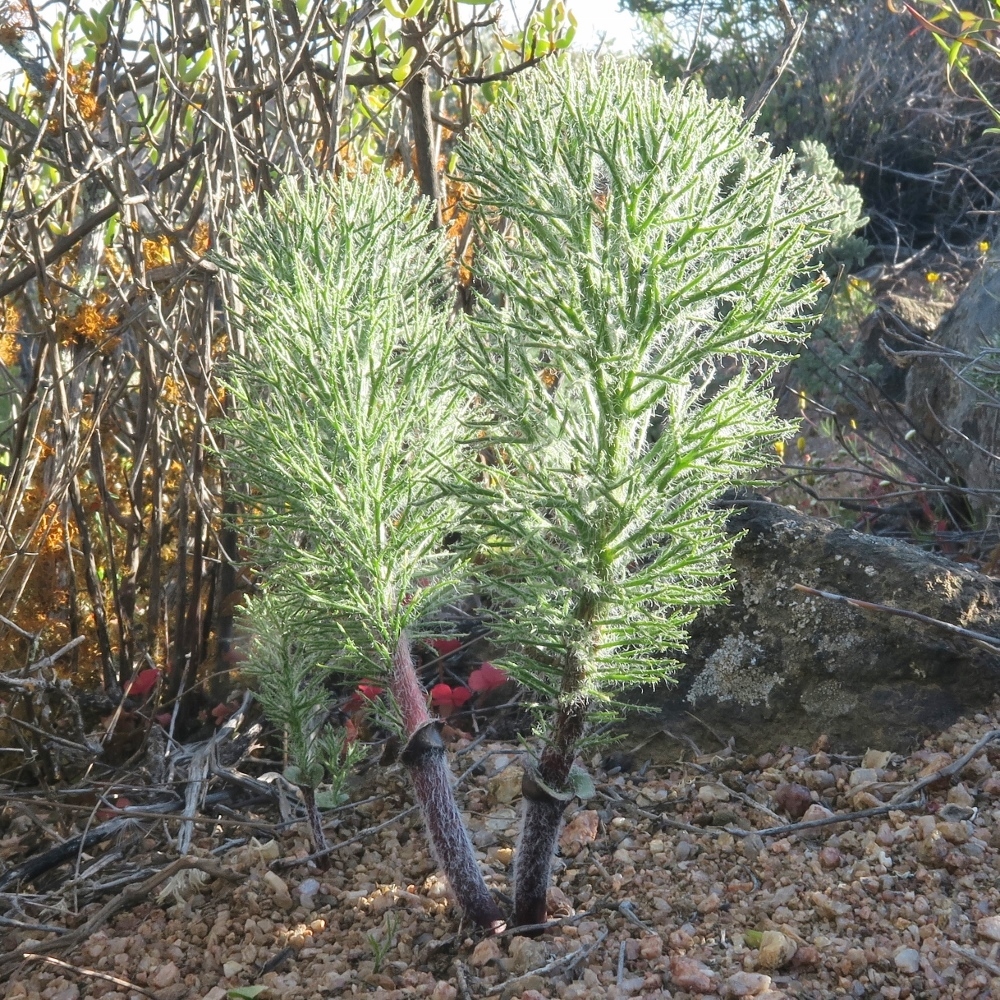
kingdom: Plantae
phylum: Tracheophyta
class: Liliopsida
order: Asparagales
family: Asparagaceae
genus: Eriospermum
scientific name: Eriospermum paradoxum
